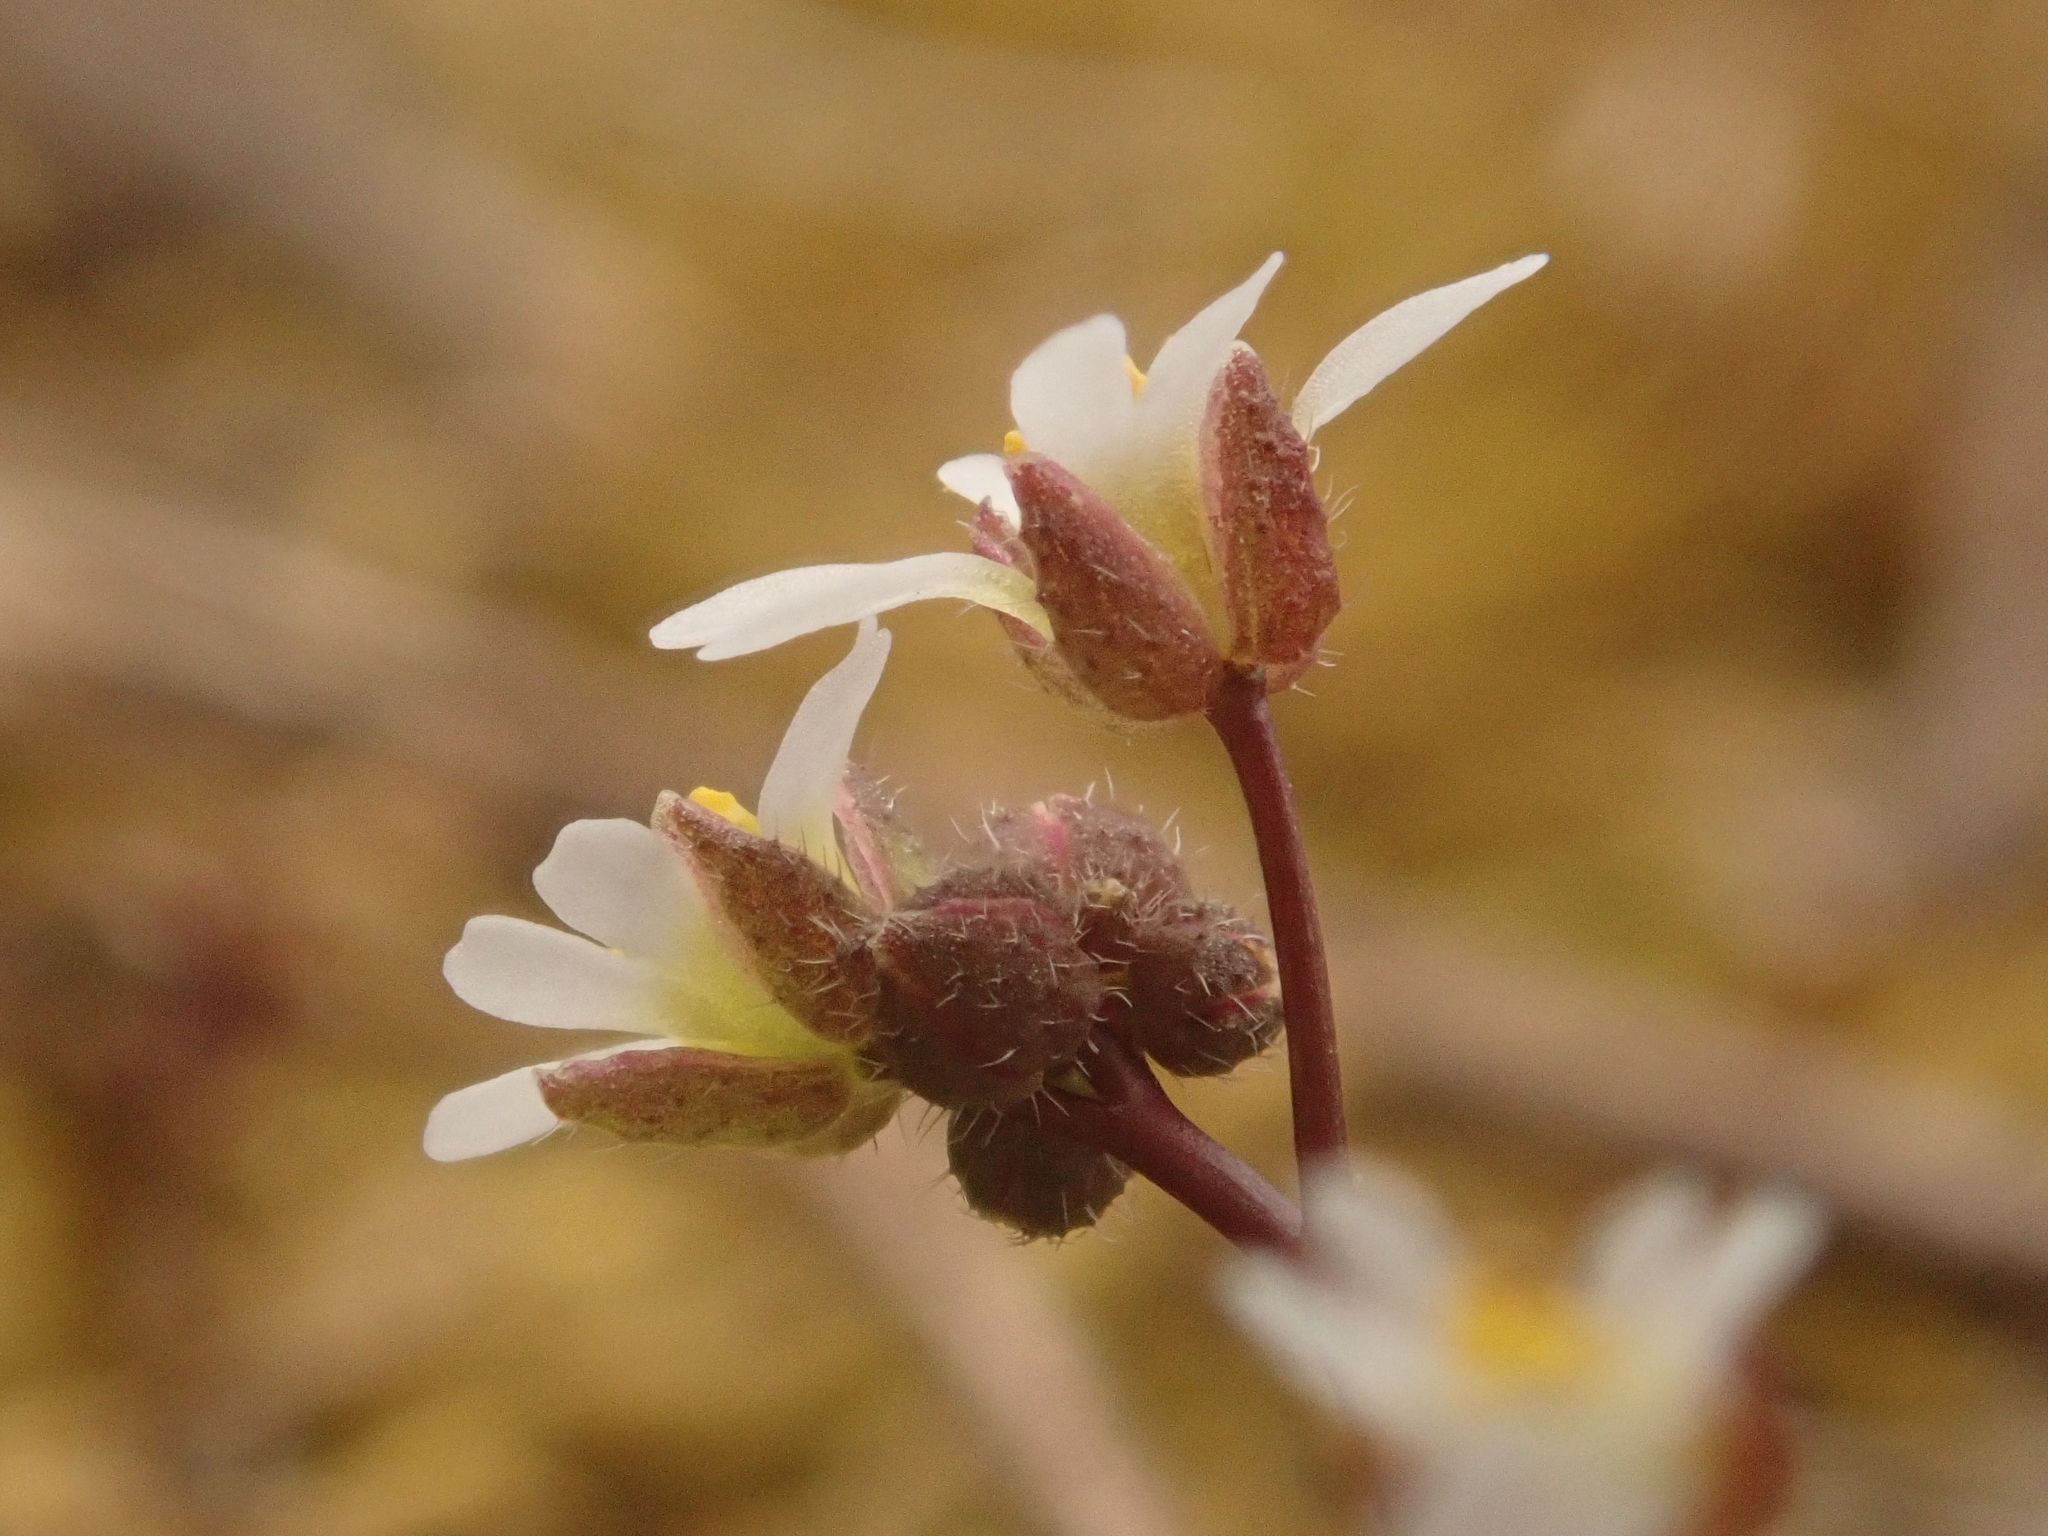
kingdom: Plantae
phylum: Tracheophyta
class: Magnoliopsida
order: Brassicales
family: Brassicaceae
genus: Draba
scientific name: Draba verna
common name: Spring draba
